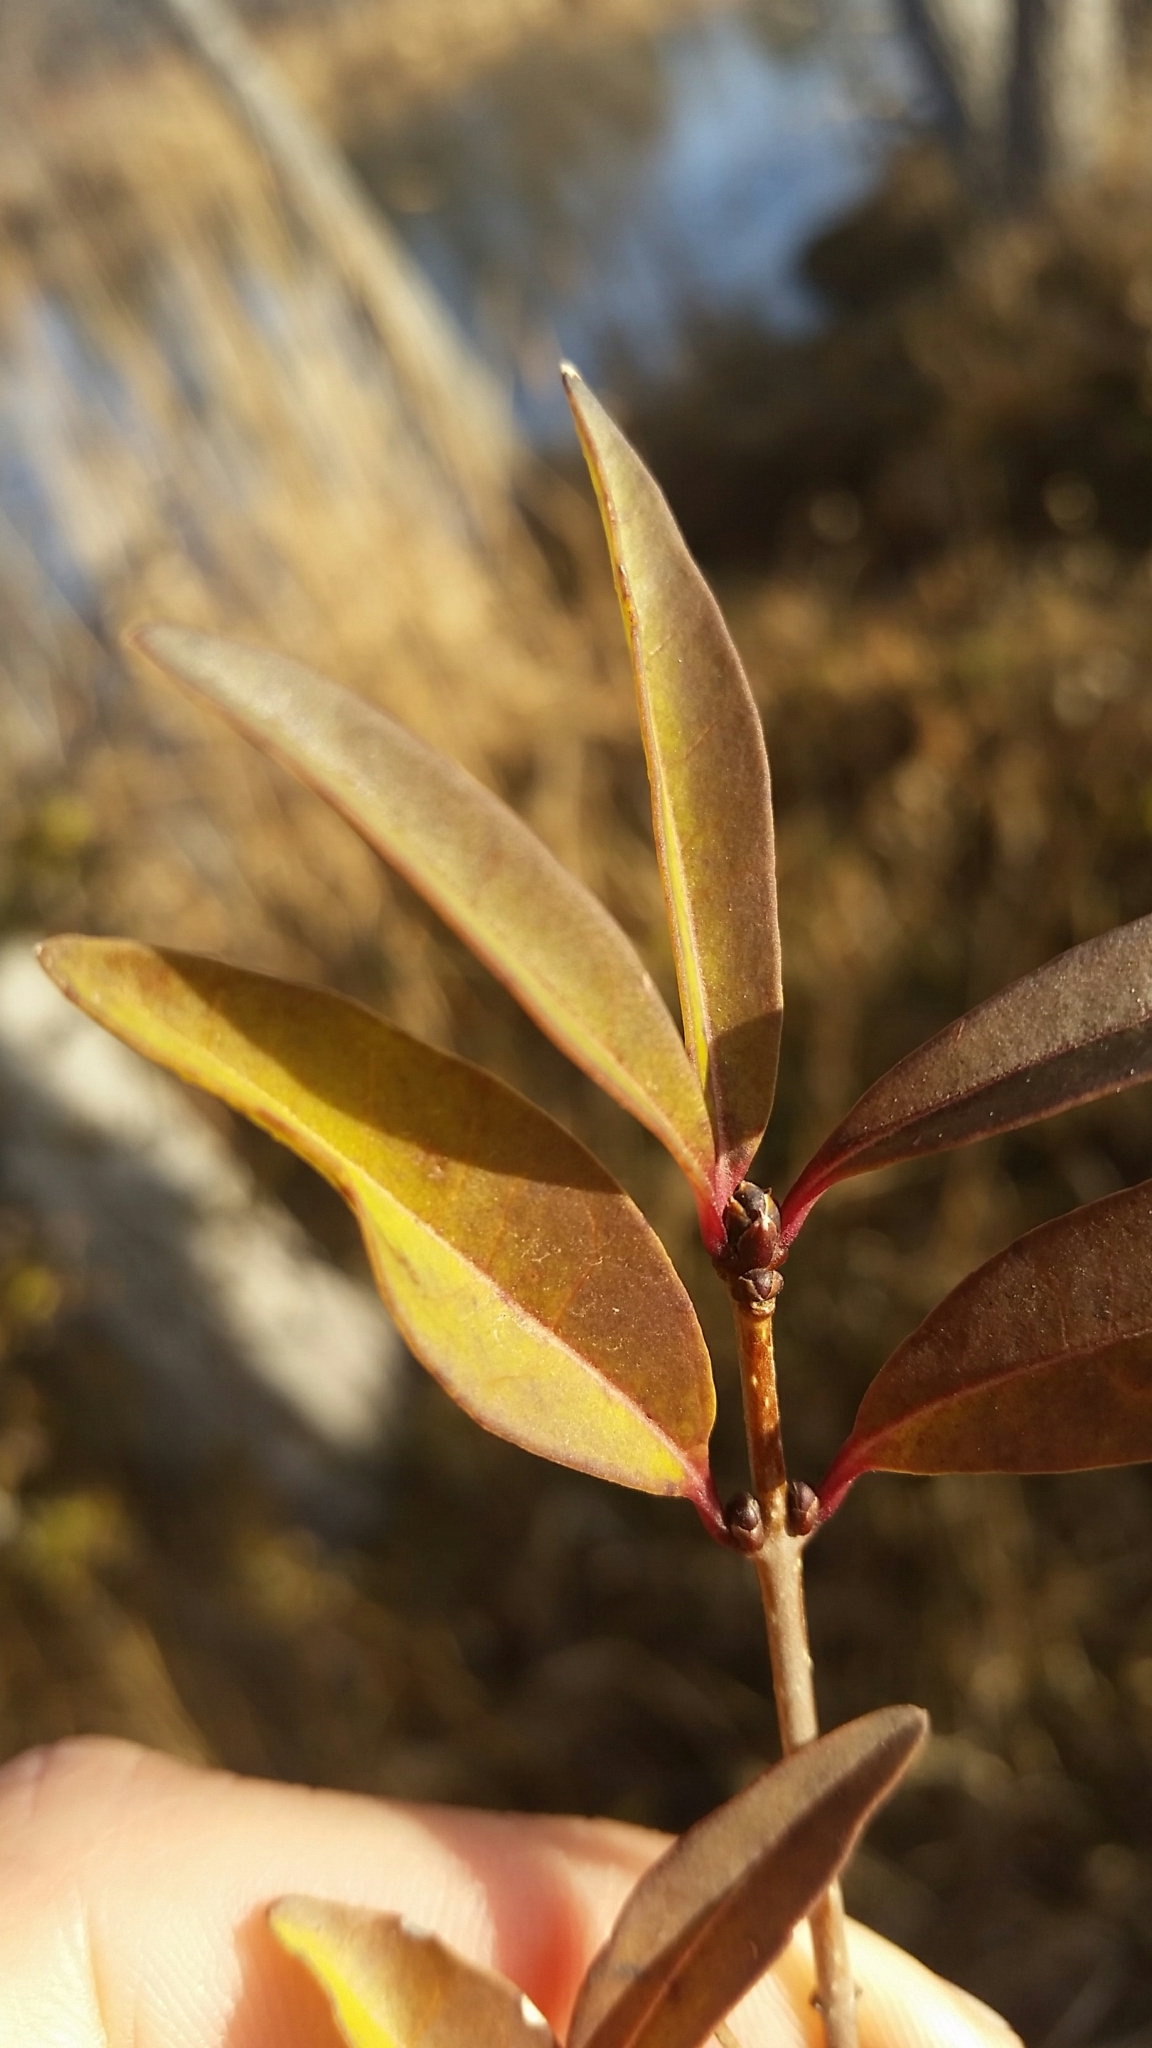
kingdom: Plantae
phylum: Tracheophyta
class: Magnoliopsida
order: Lamiales
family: Oleaceae
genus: Ligustrum
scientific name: Ligustrum vulgare
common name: Wild privet
